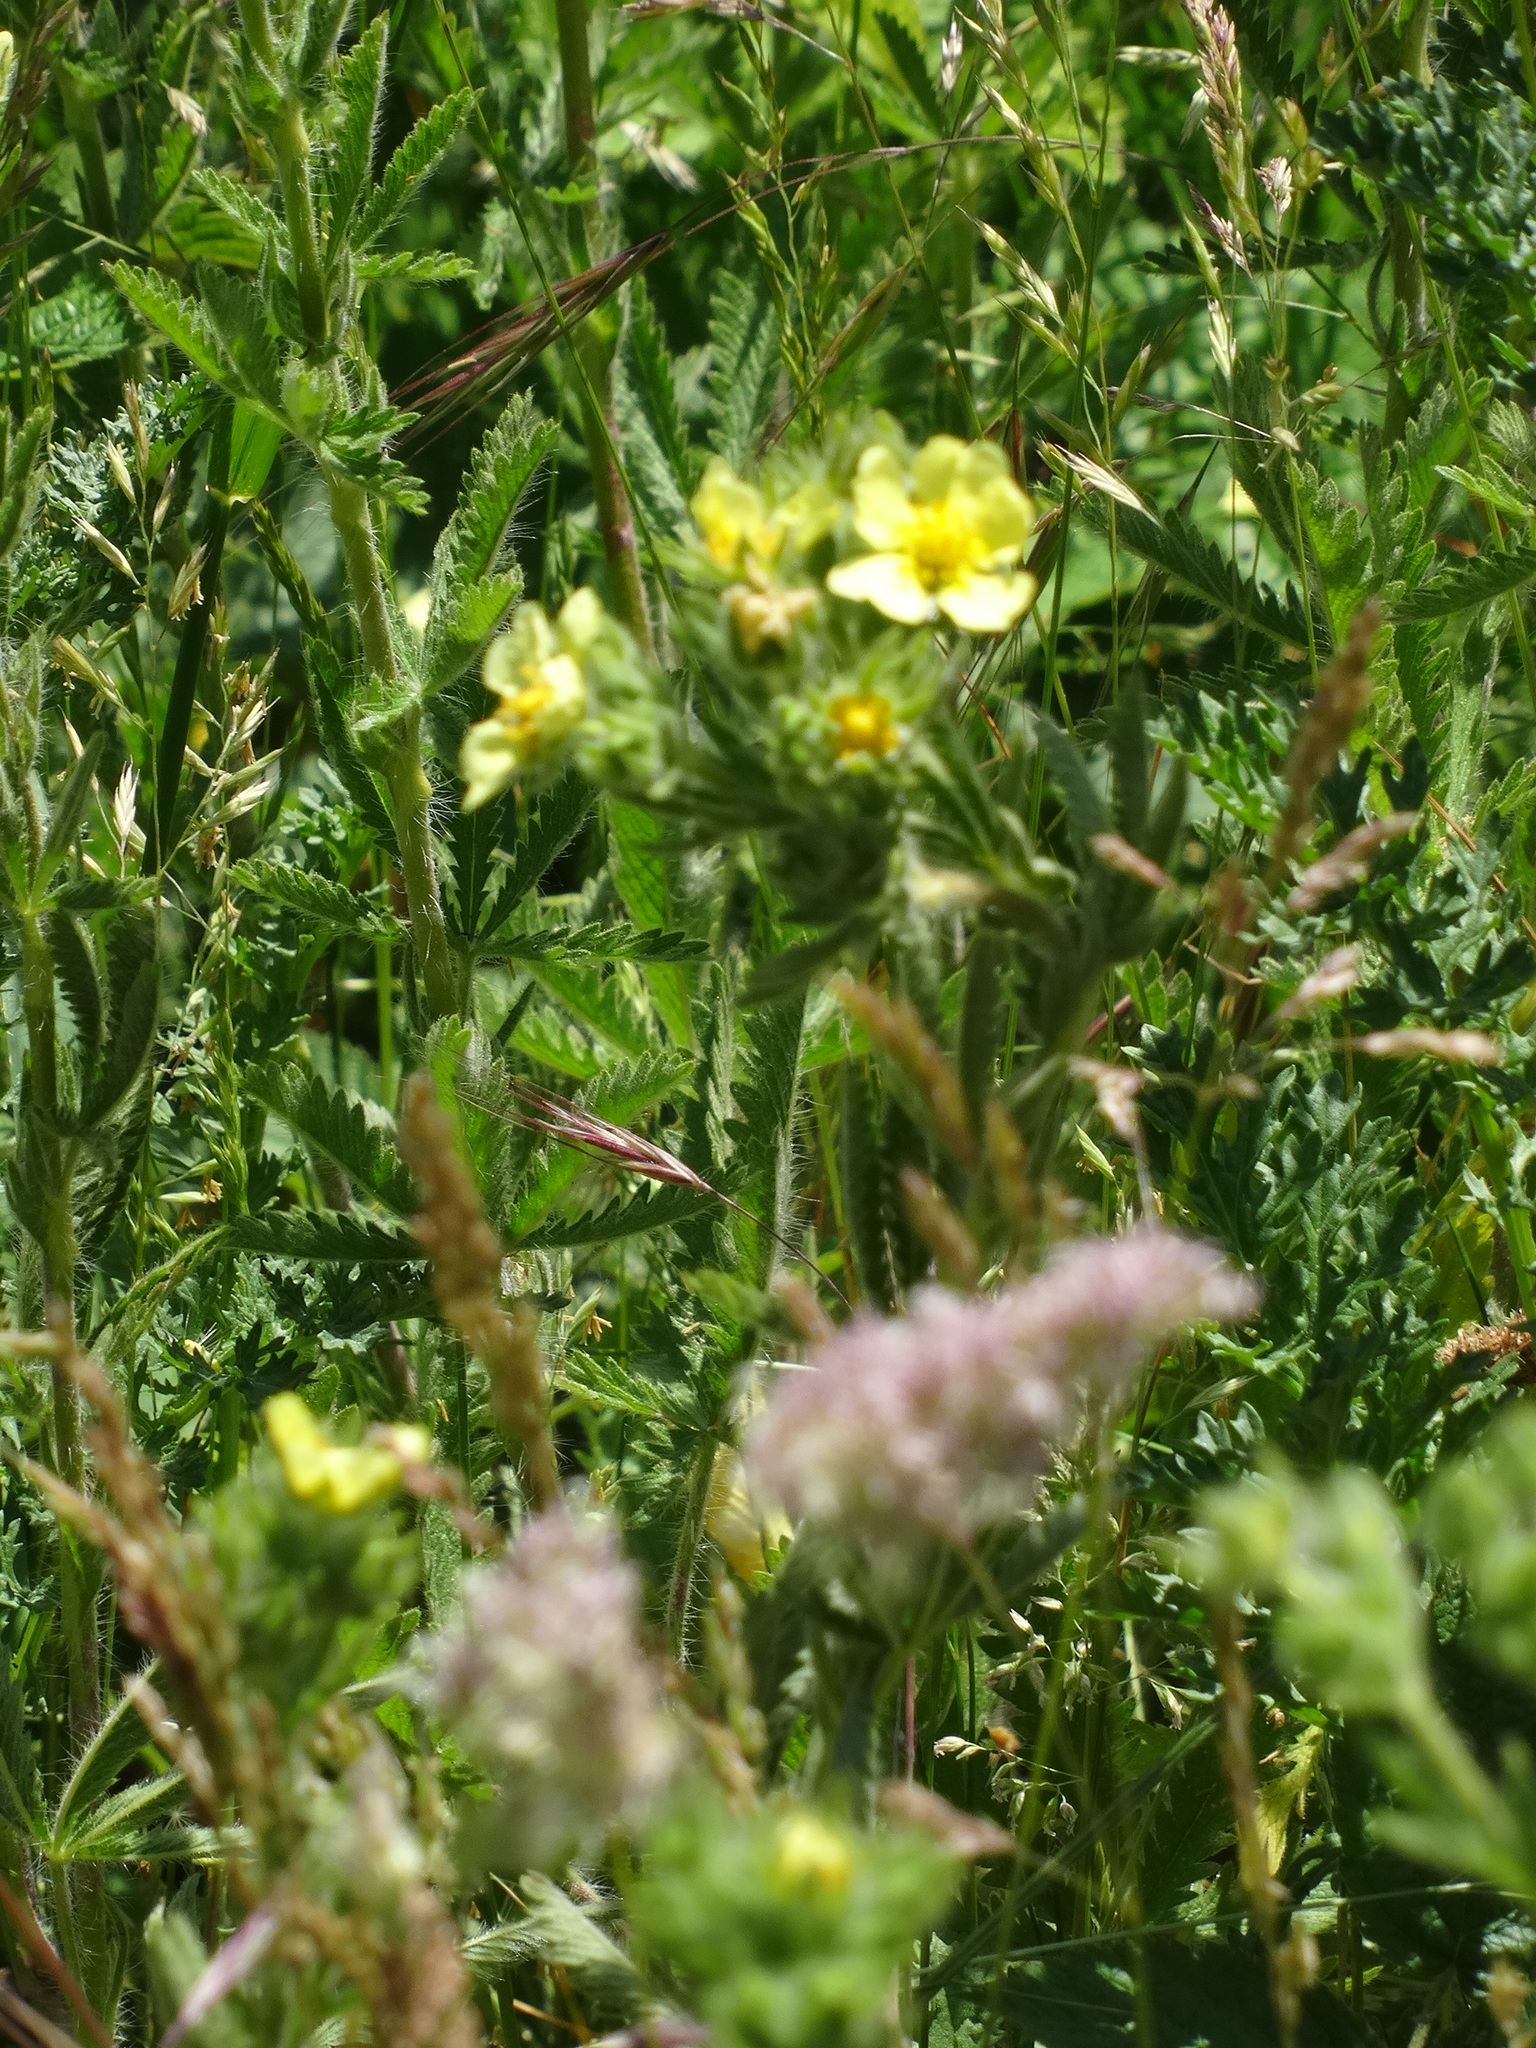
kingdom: Plantae
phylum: Tracheophyta
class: Magnoliopsida
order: Rosales
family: Rosaceae
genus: Potentilla
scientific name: Potentilla recta
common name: Sulphur cinquefoil
